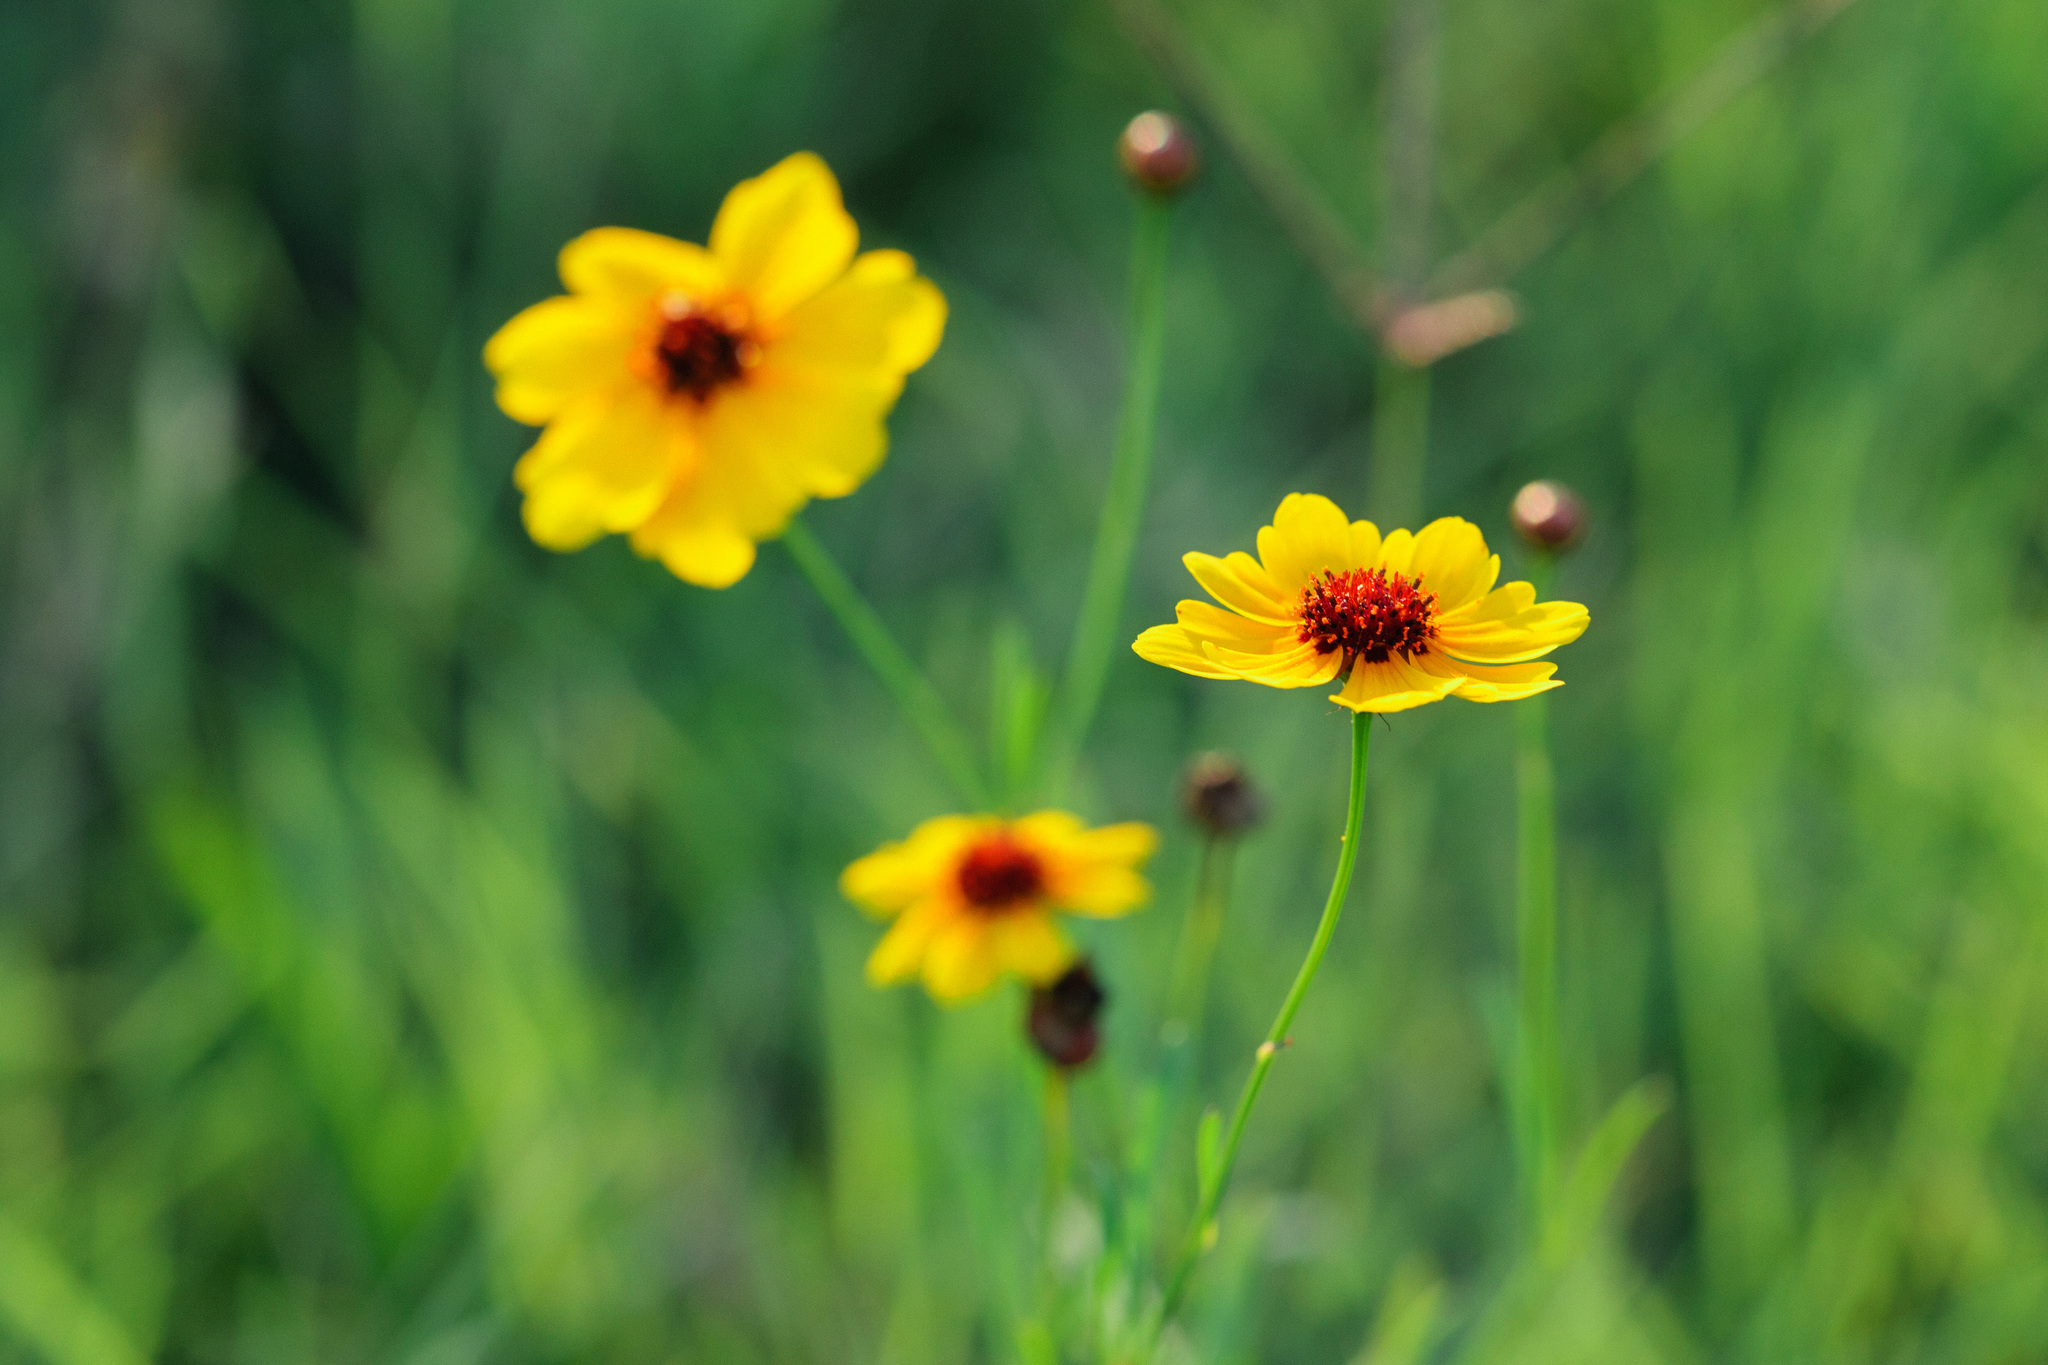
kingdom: Plantae
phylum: Tracheophyta
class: Magnoliopsida
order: Asterales
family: Asteraceae
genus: Coreopsis
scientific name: Coreopsis tinctoria
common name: Garden tickseed
